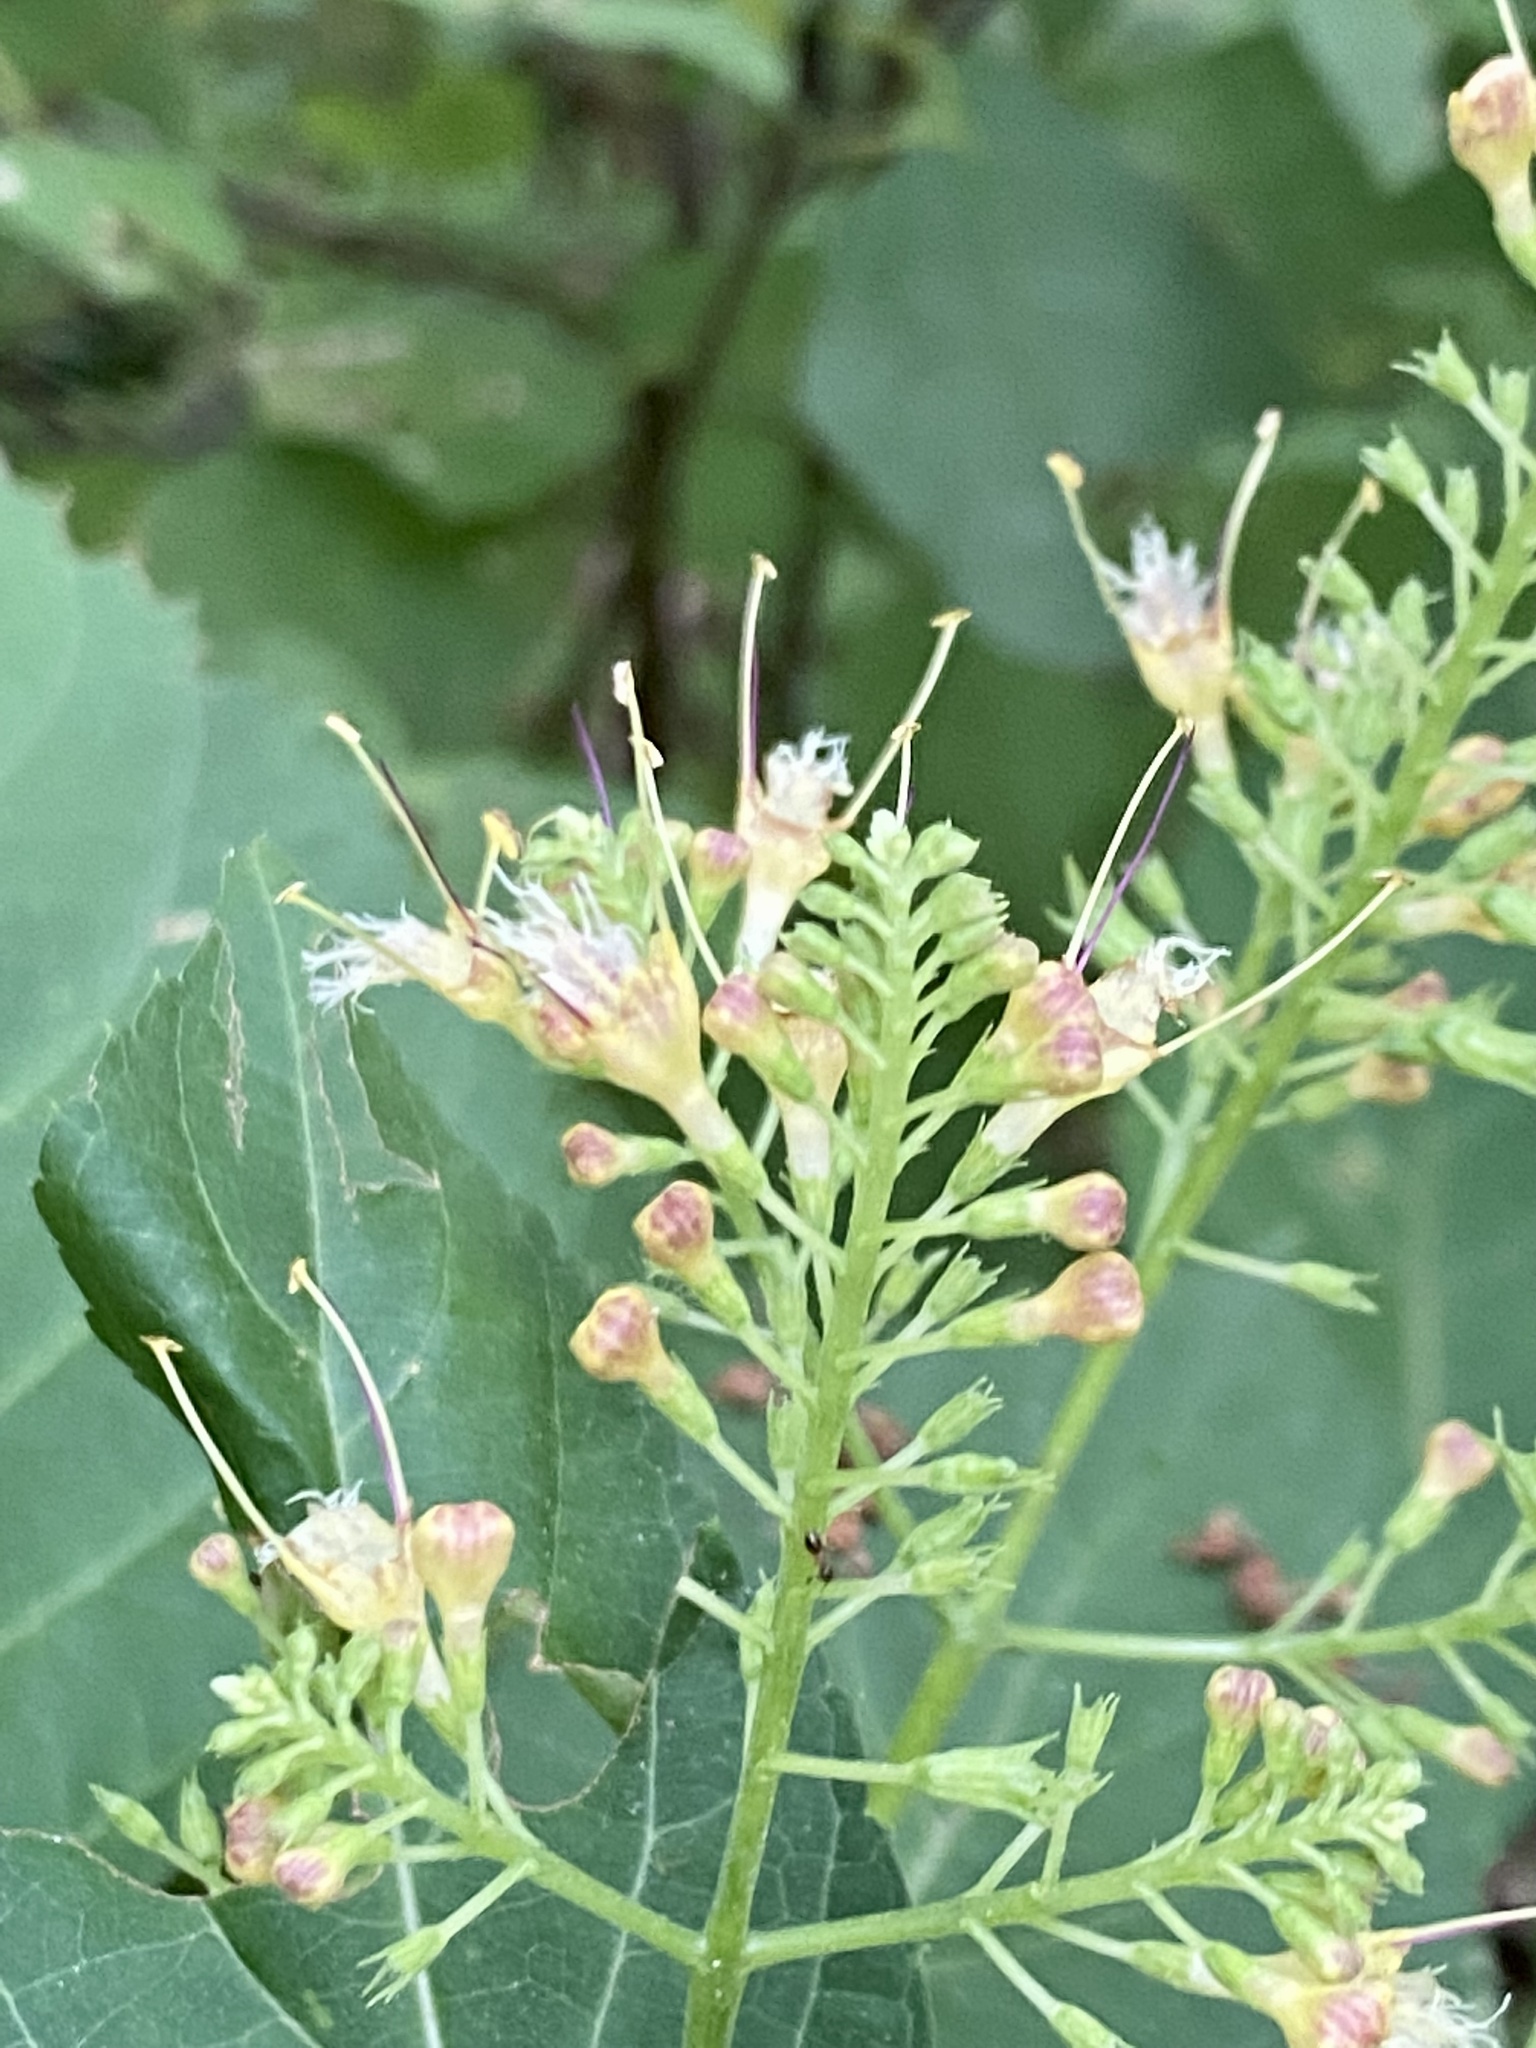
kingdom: Plantae
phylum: Tracheophyta
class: Magnoliopsida
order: Lamiales
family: Lamiaceae
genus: Collinsonia
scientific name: Collinsonia canadensis
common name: Northern horsebalm
